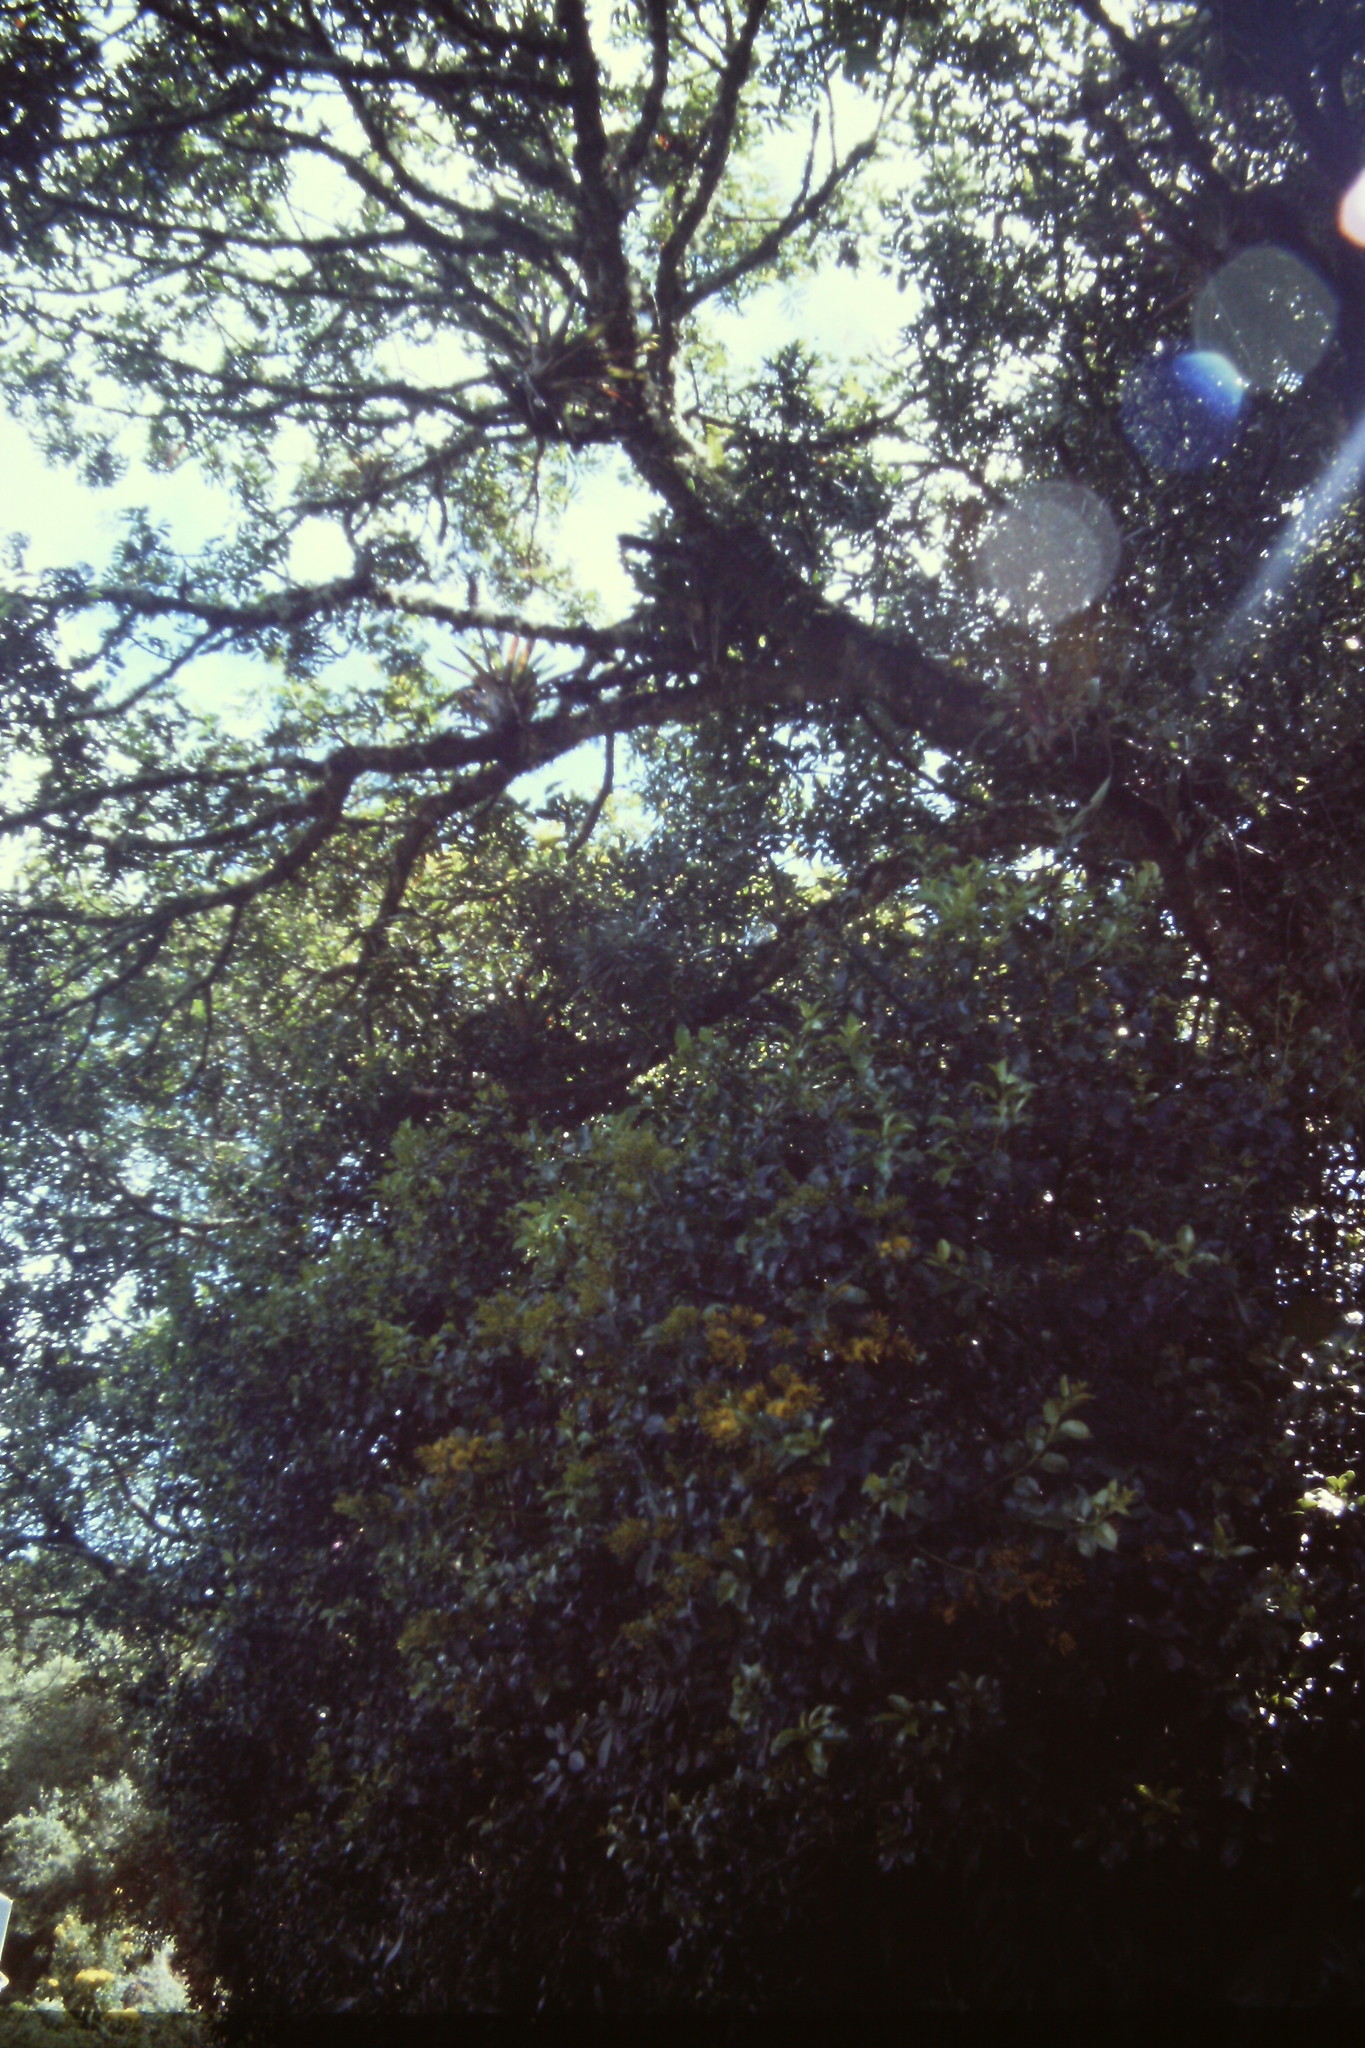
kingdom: Plantae
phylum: Tracheophyta
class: Magnoliopsida
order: Santalales
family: Loranthaceae
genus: Gaiadendron
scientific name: Gaiadendron punctatum
